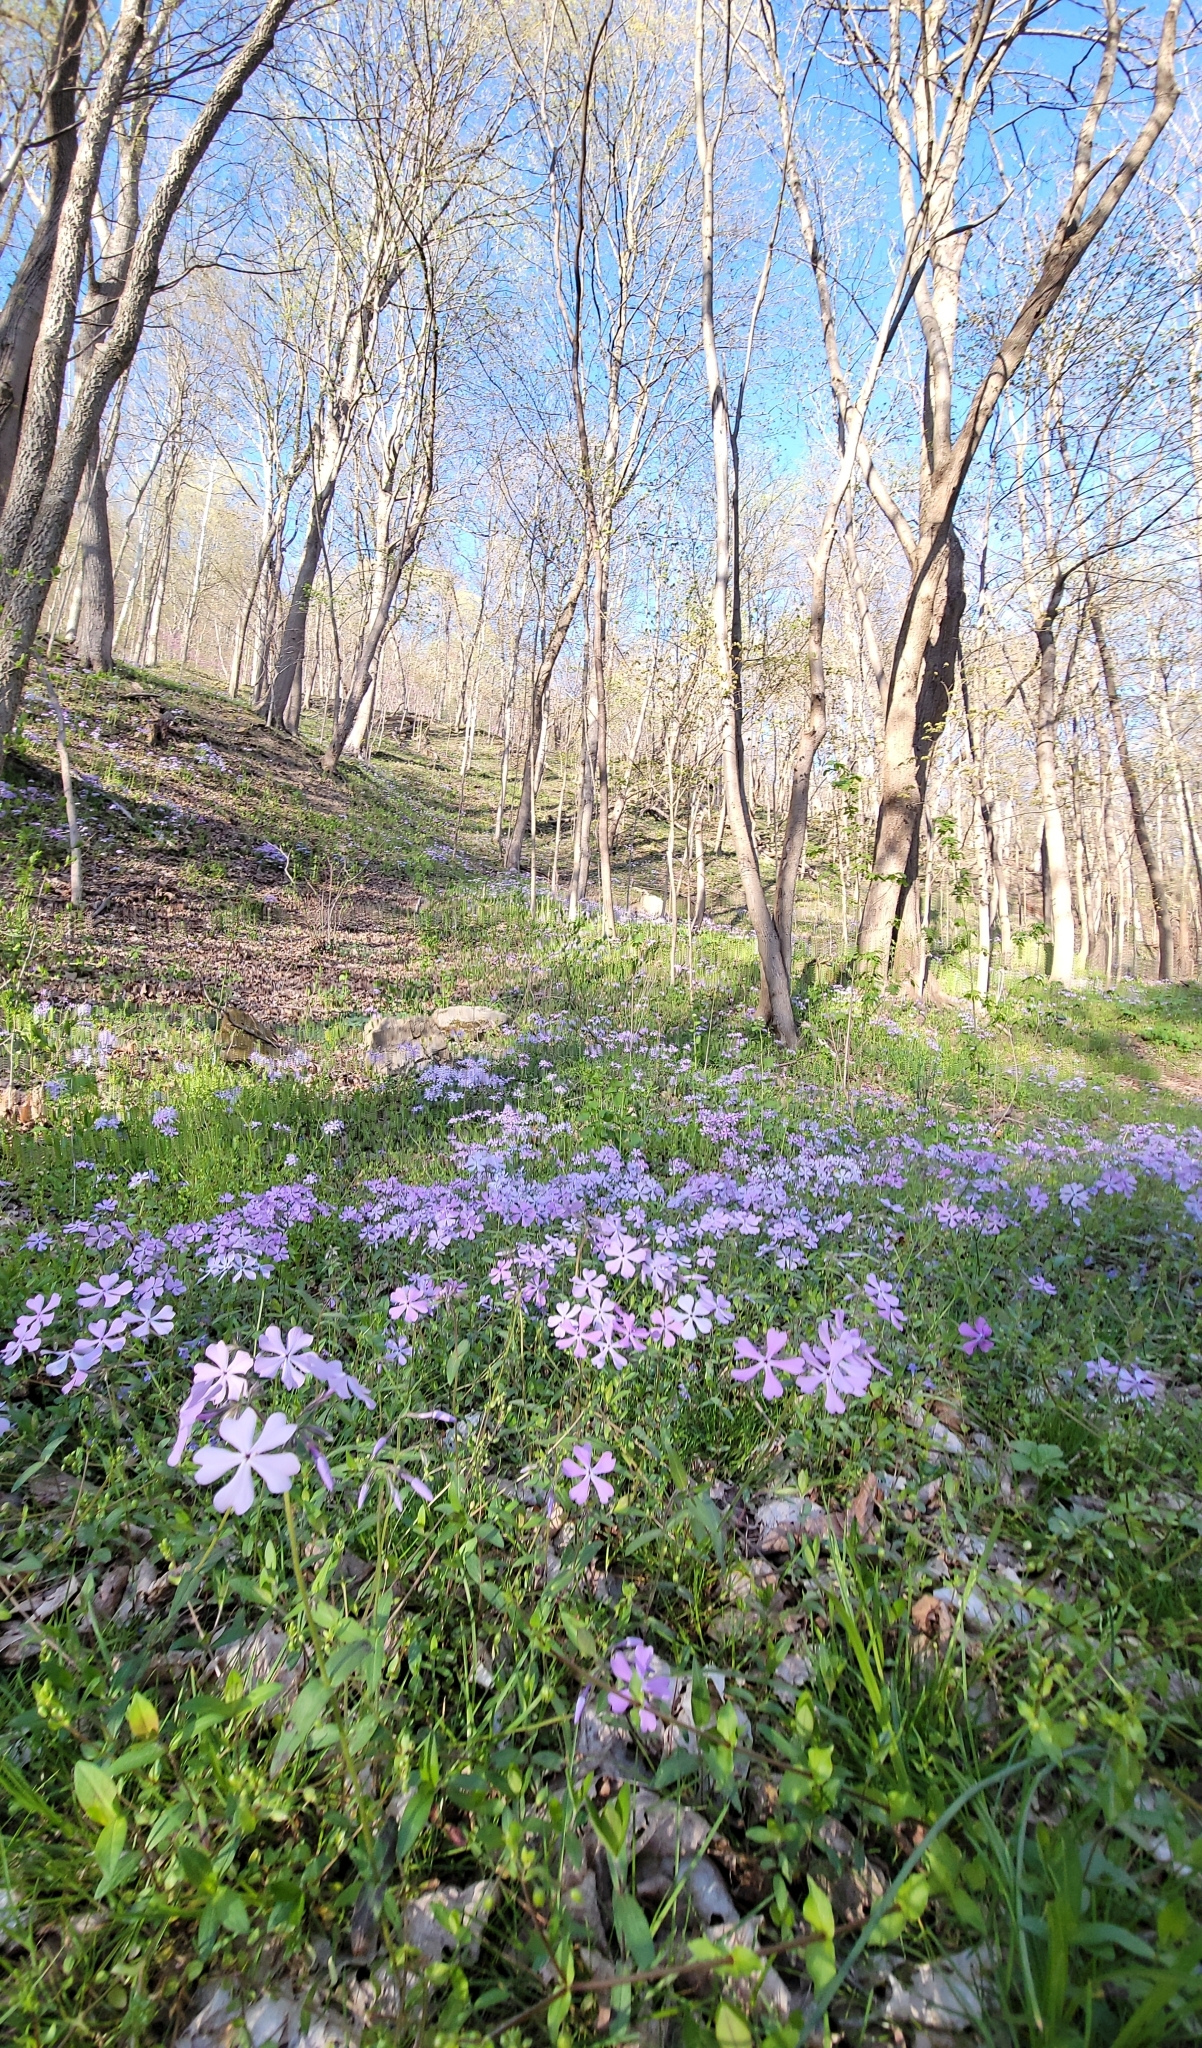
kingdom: Plantae
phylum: Tracheophyta
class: Magnoliopsida
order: Ericales
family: Polemoniaceae
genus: Phlox
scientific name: Phlox divaricata
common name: Blue phlox
